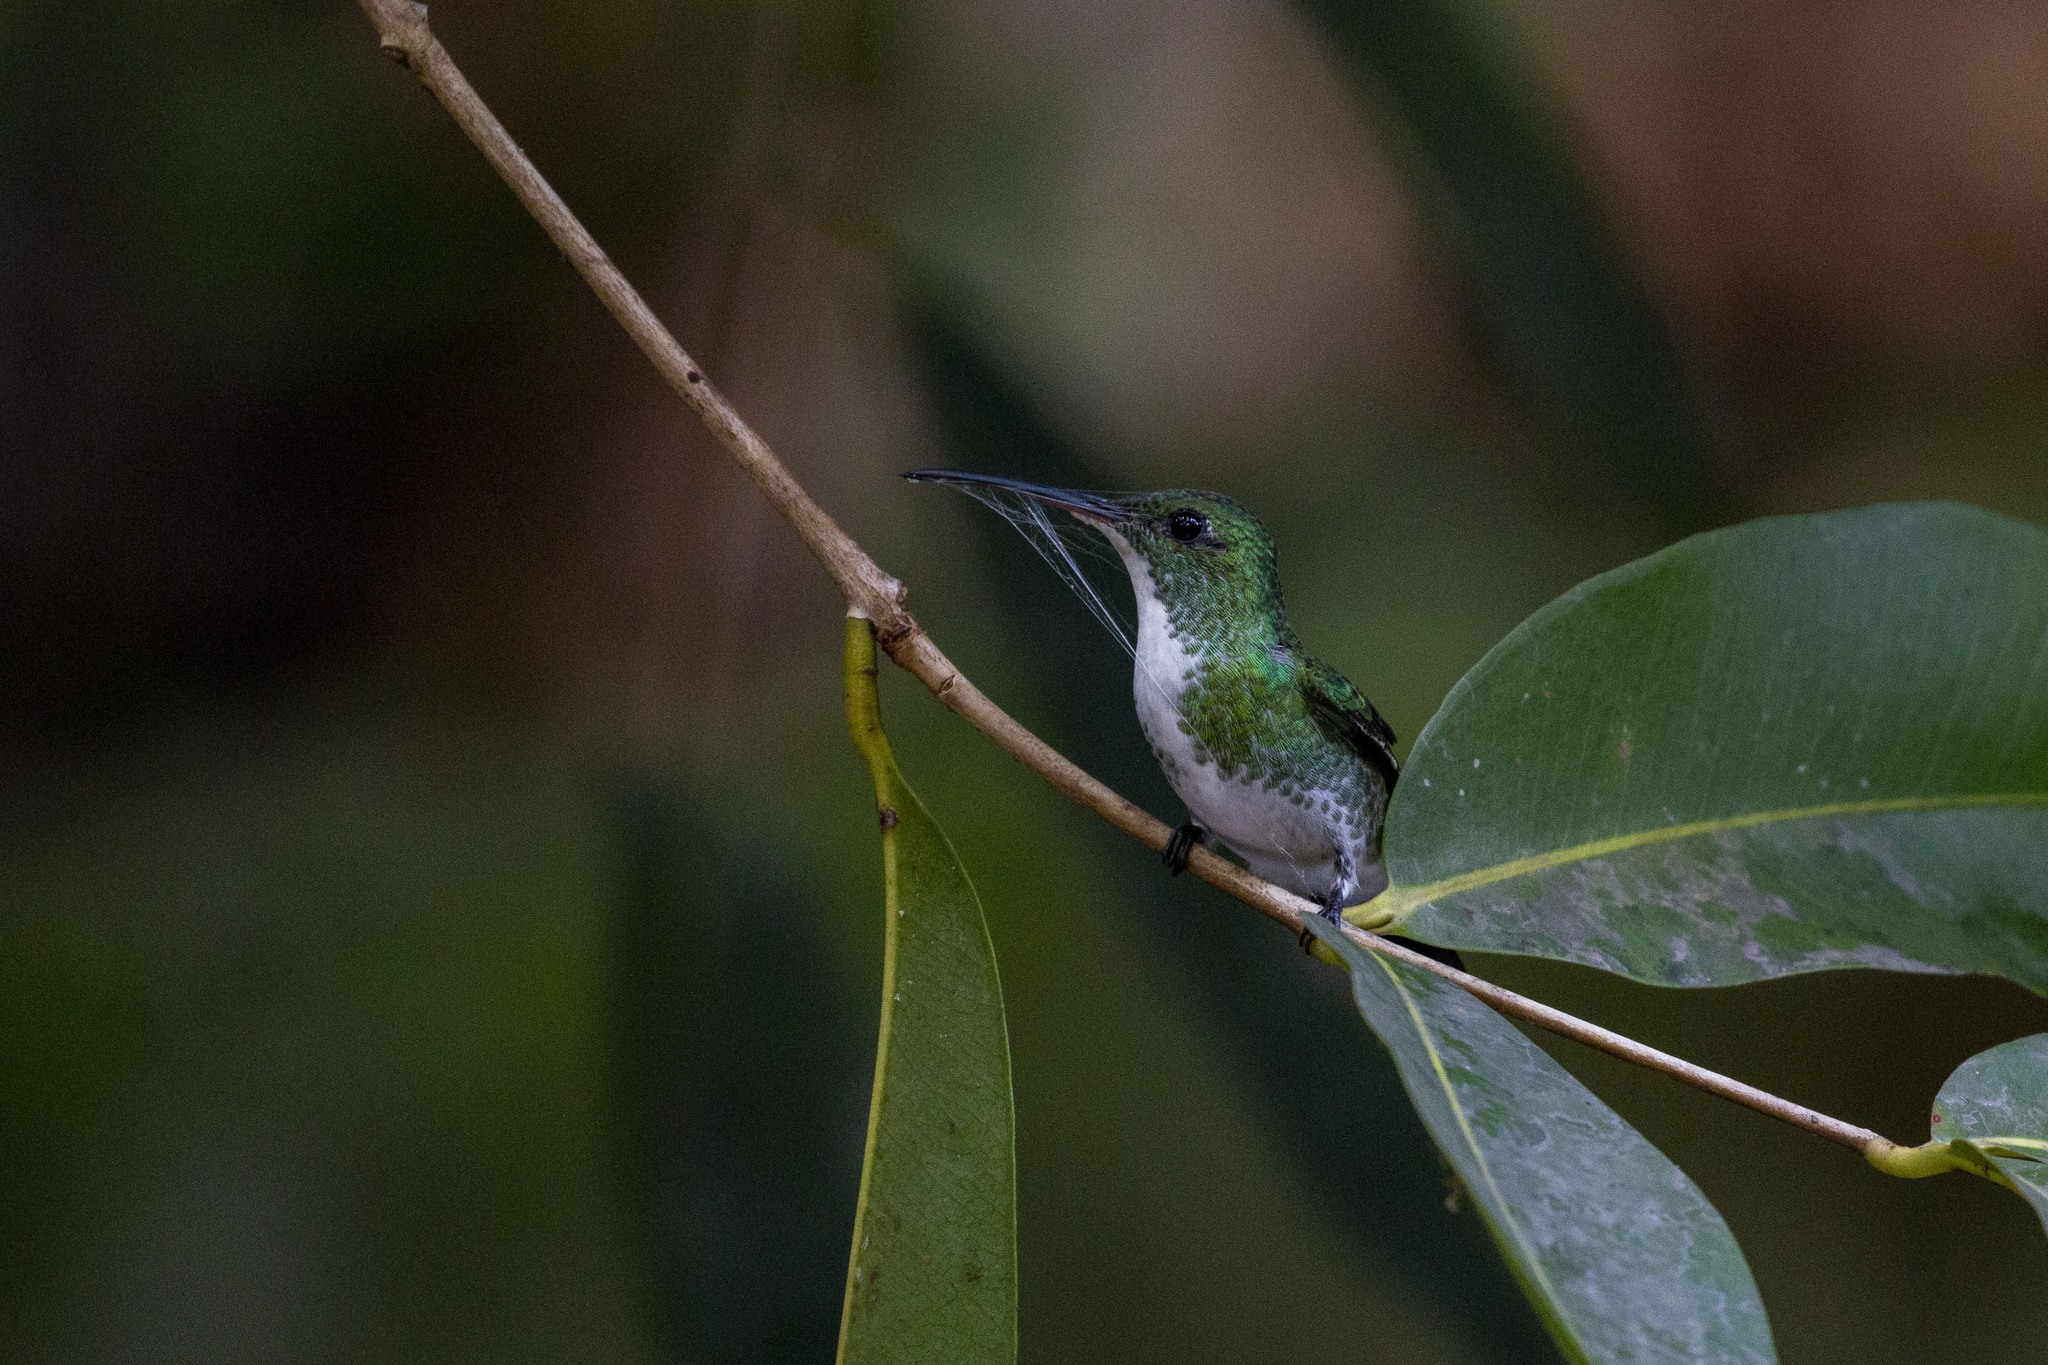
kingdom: Animalia
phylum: Chordata
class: Aves
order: Apodiformes
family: Trochilidae
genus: Chrysuronia
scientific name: Chrysuronia leucogaster
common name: Plain-bellied emerald
